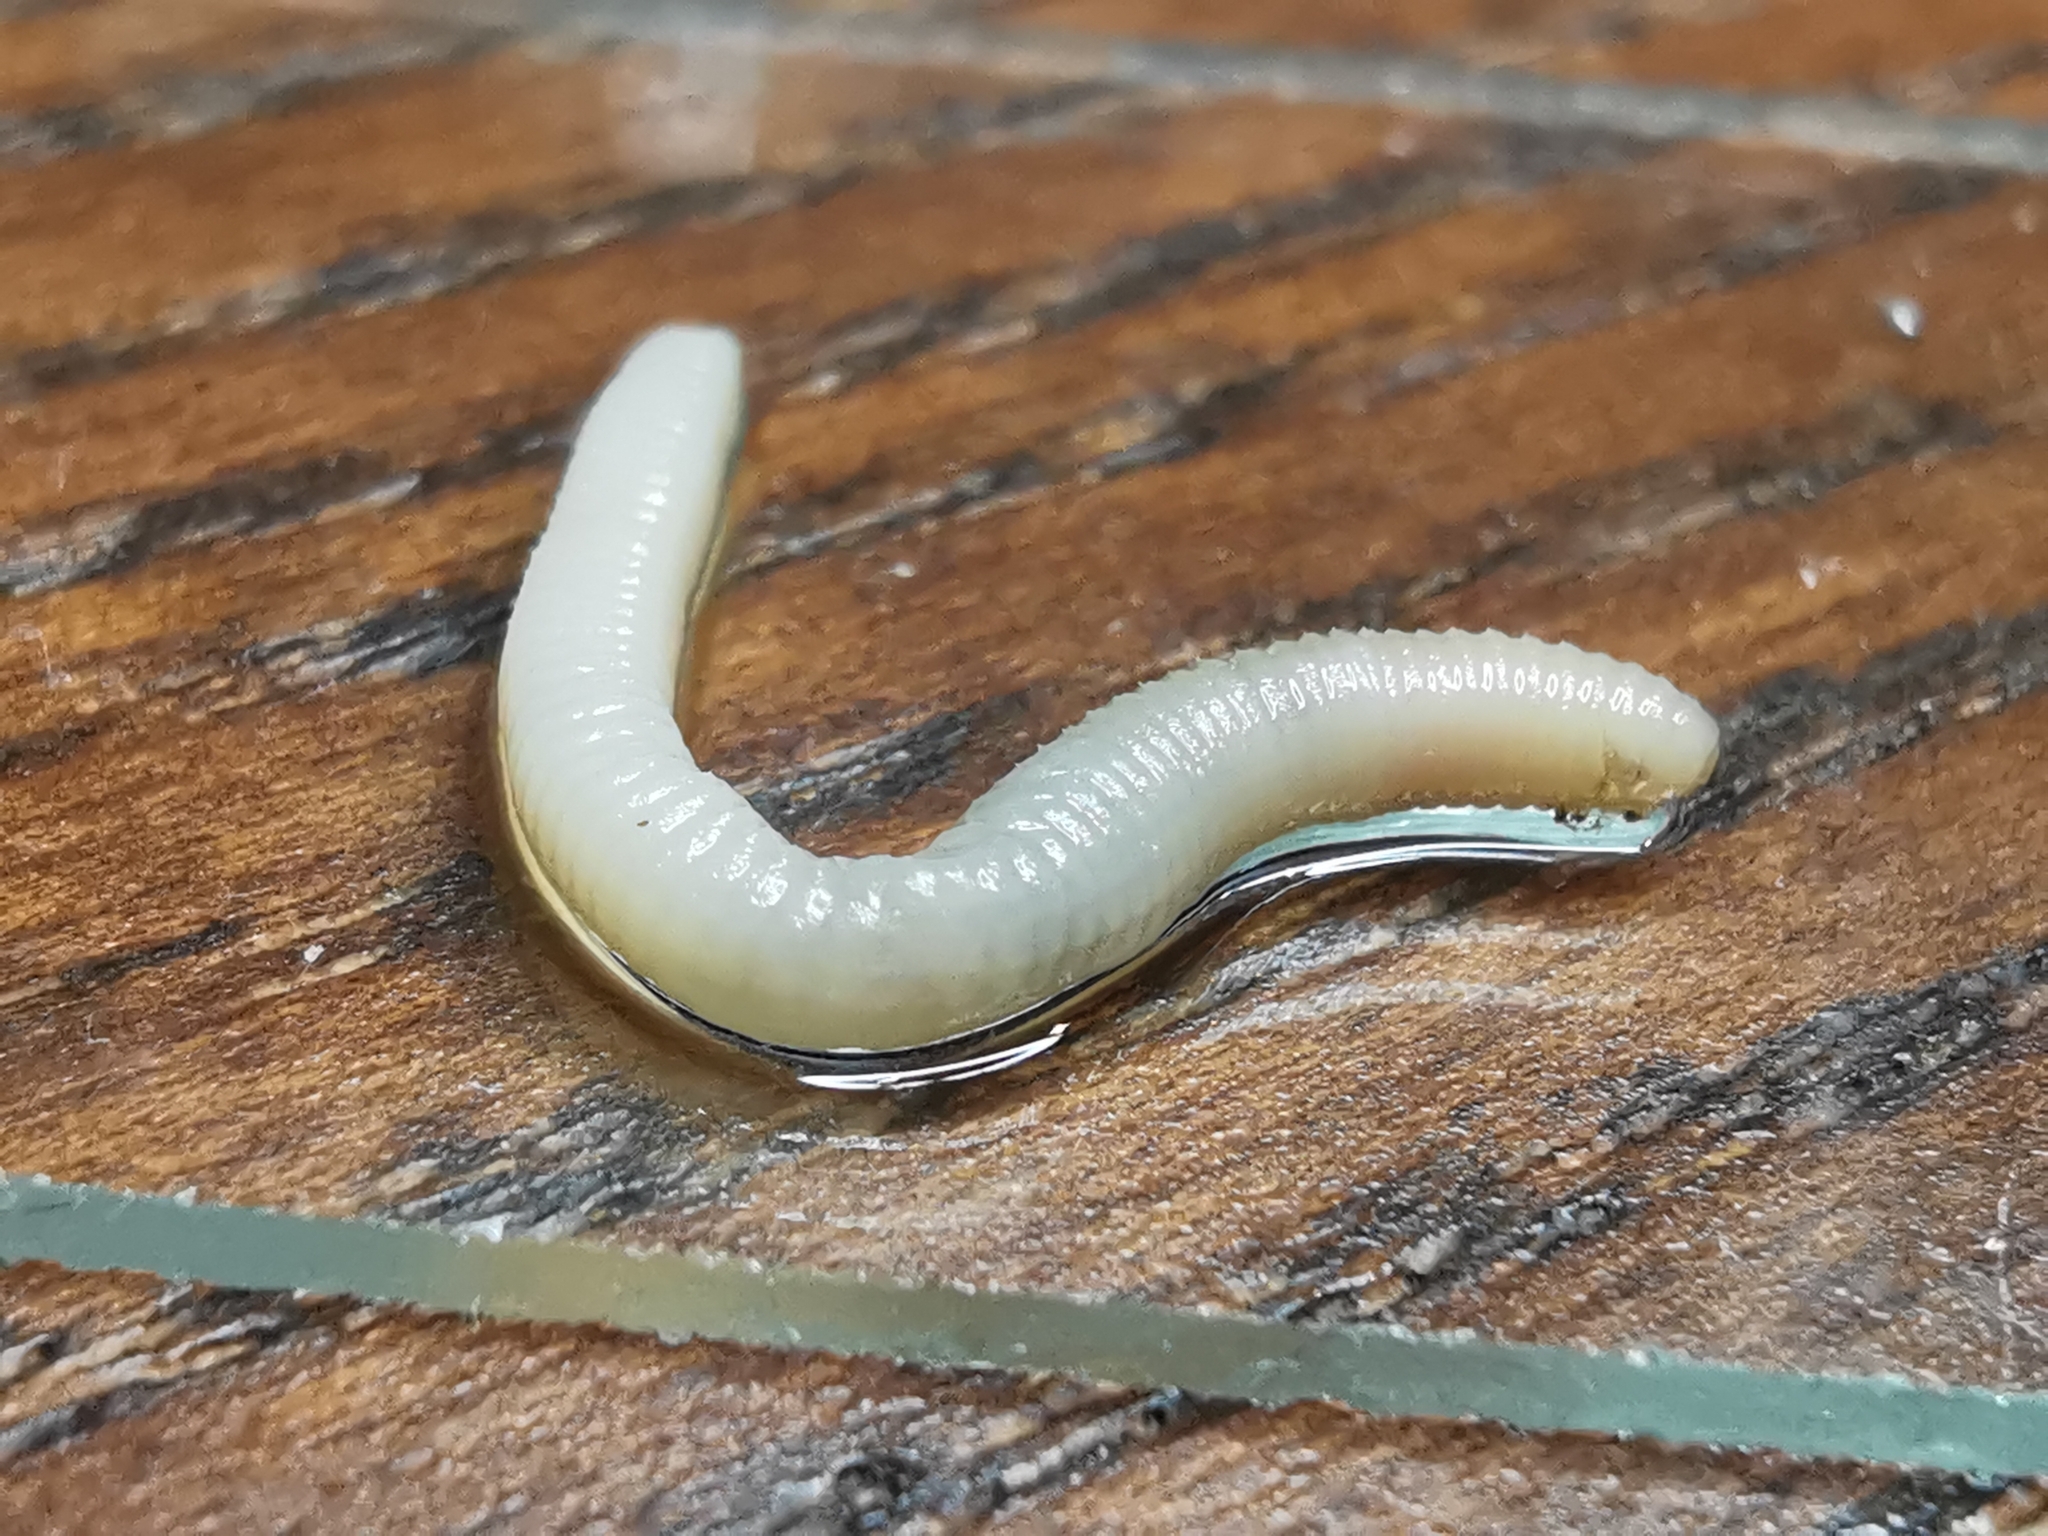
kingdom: Animalia
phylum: Annelida
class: Clitellata
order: Crassiclitellata
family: Lumbricidae
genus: Eiseniella
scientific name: Eiseniella tetraedra
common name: Square-tailed worm
